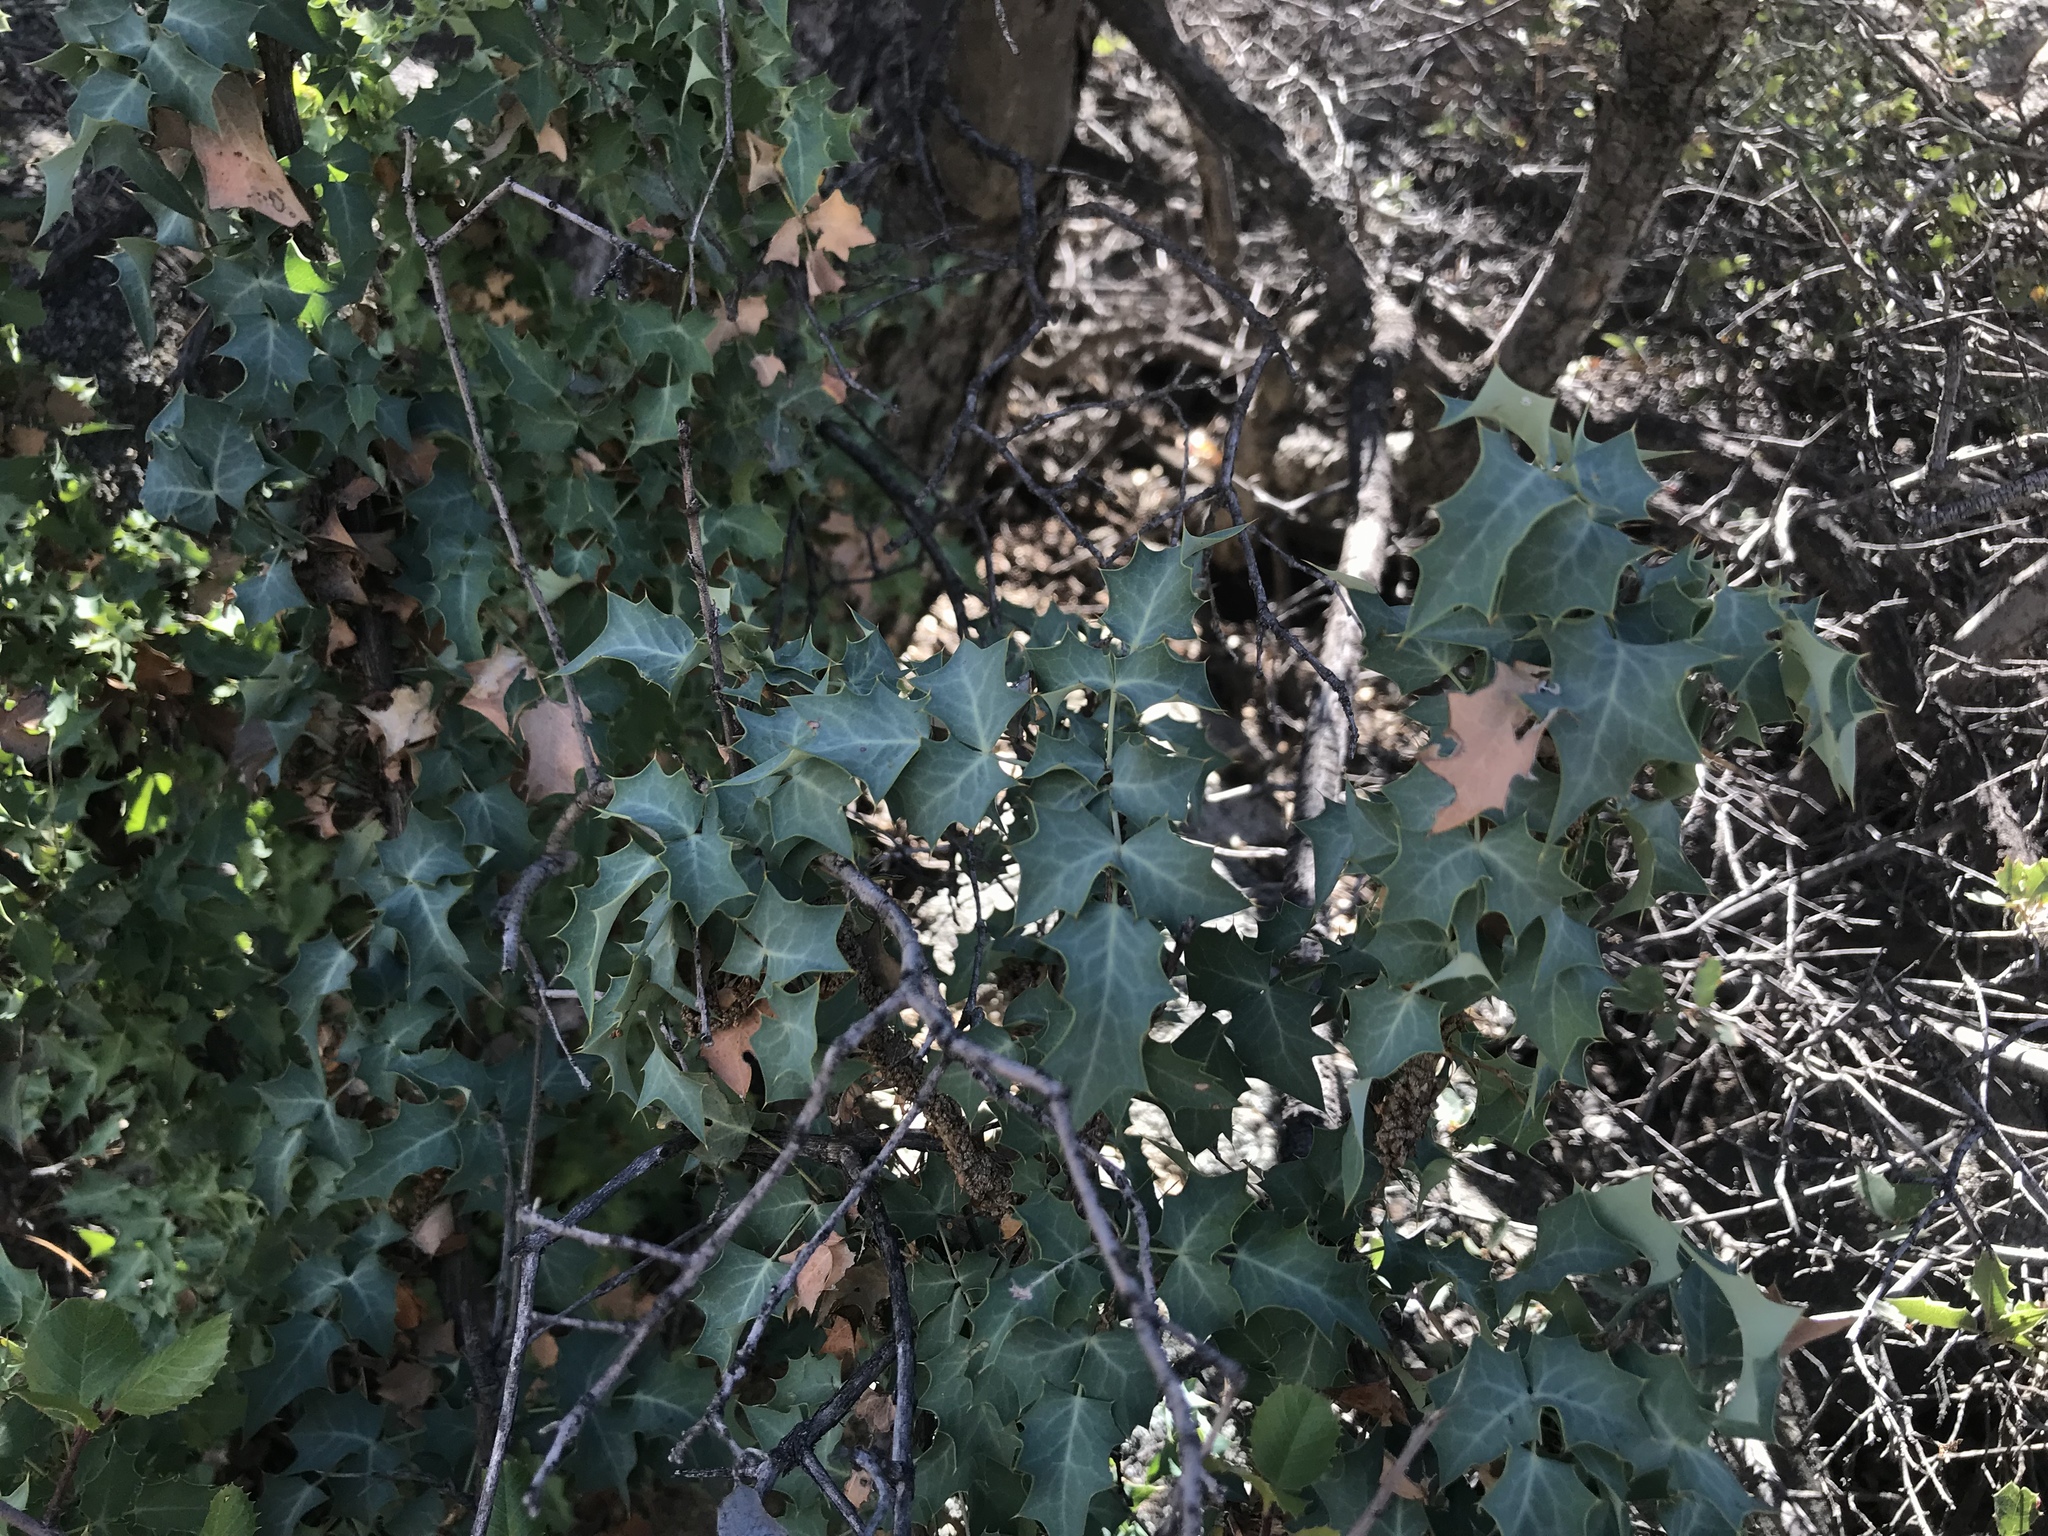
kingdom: Plantae
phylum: Tracheophyta
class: Magnoliopsida
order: Ranunculales
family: Berberidaceae
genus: Alloberberis
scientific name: Alloberberis fremontii
